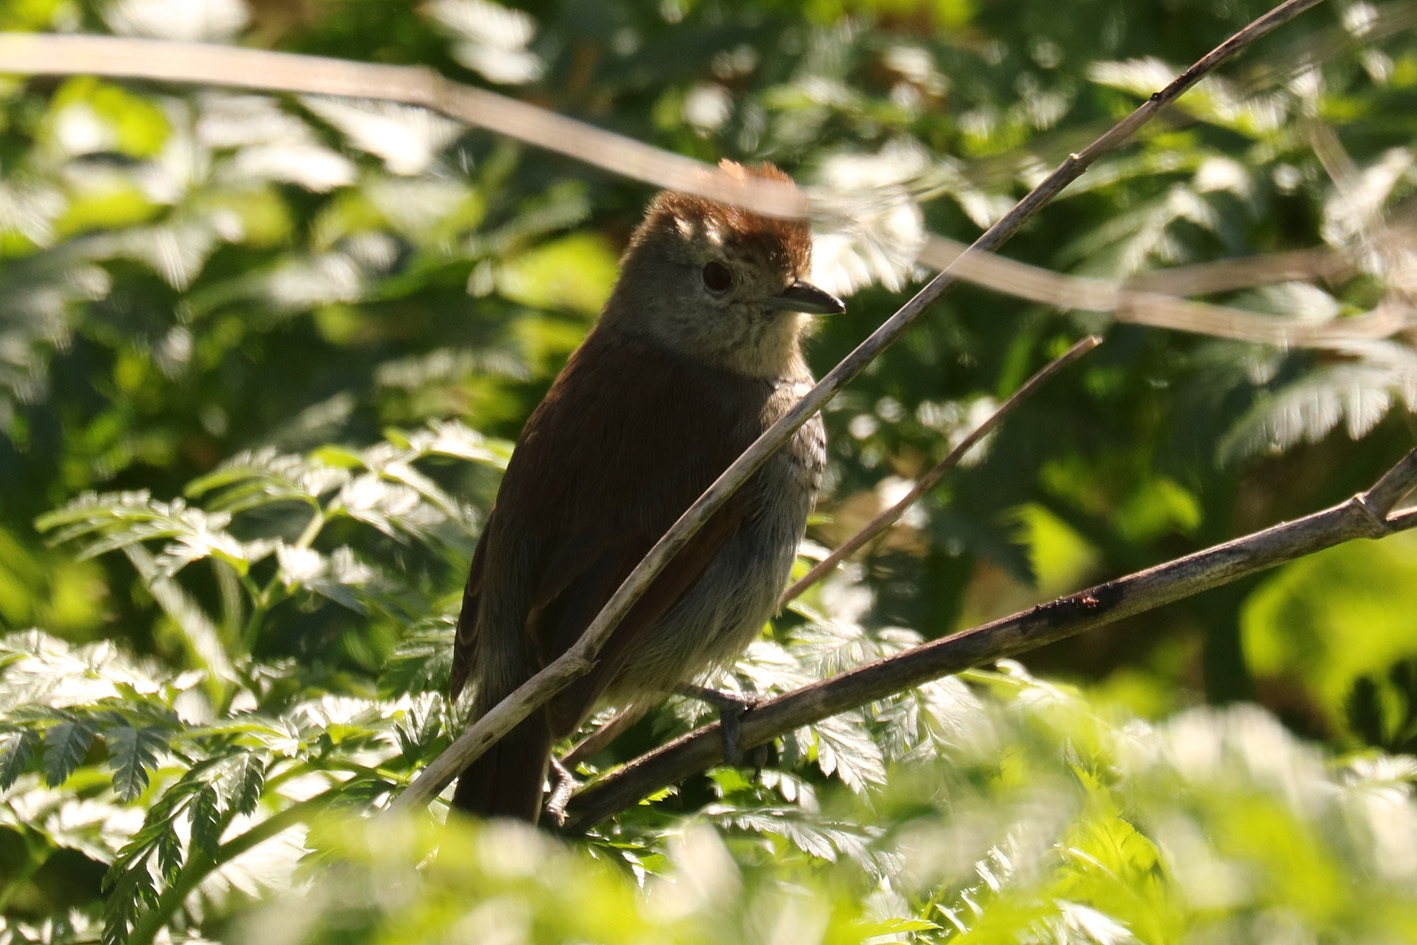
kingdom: Animalia
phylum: Chordata
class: Aves
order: Passeriformes
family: Thamnophilidae
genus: Thamnophilus
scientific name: Thamnophilus ruficapillus
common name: Rufous-capped antshrike
